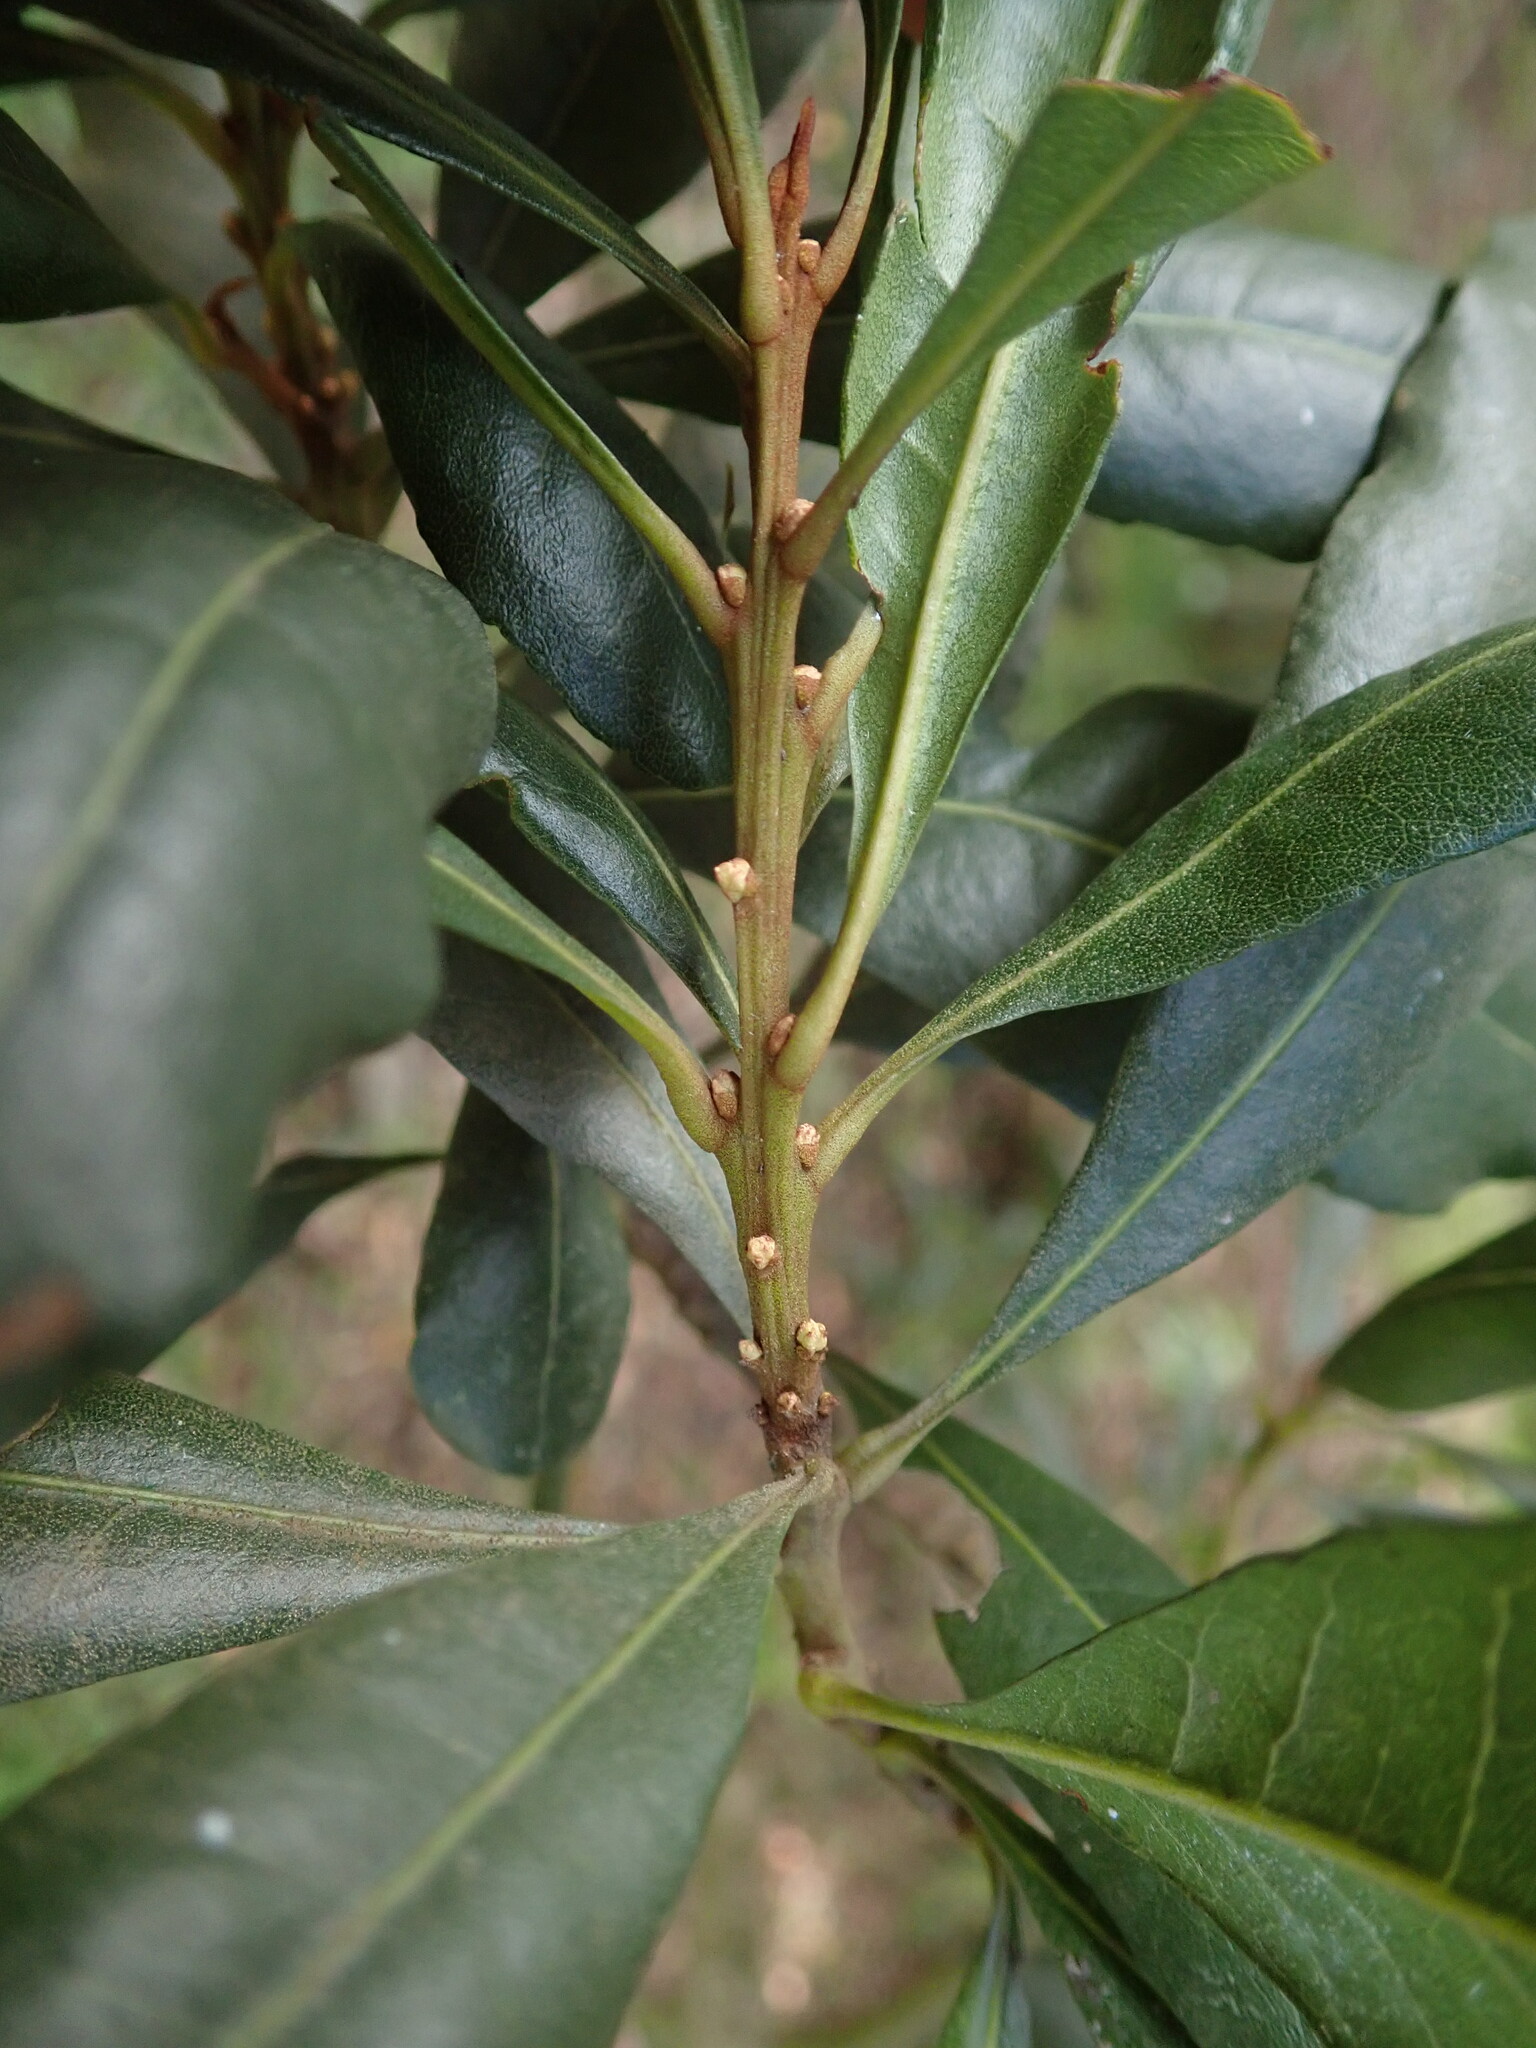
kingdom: Plantae
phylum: Tracheophyta
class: Magnoliopsida
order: Fagales
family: Myricaceae
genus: Morella
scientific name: Morella faya
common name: Firetree
